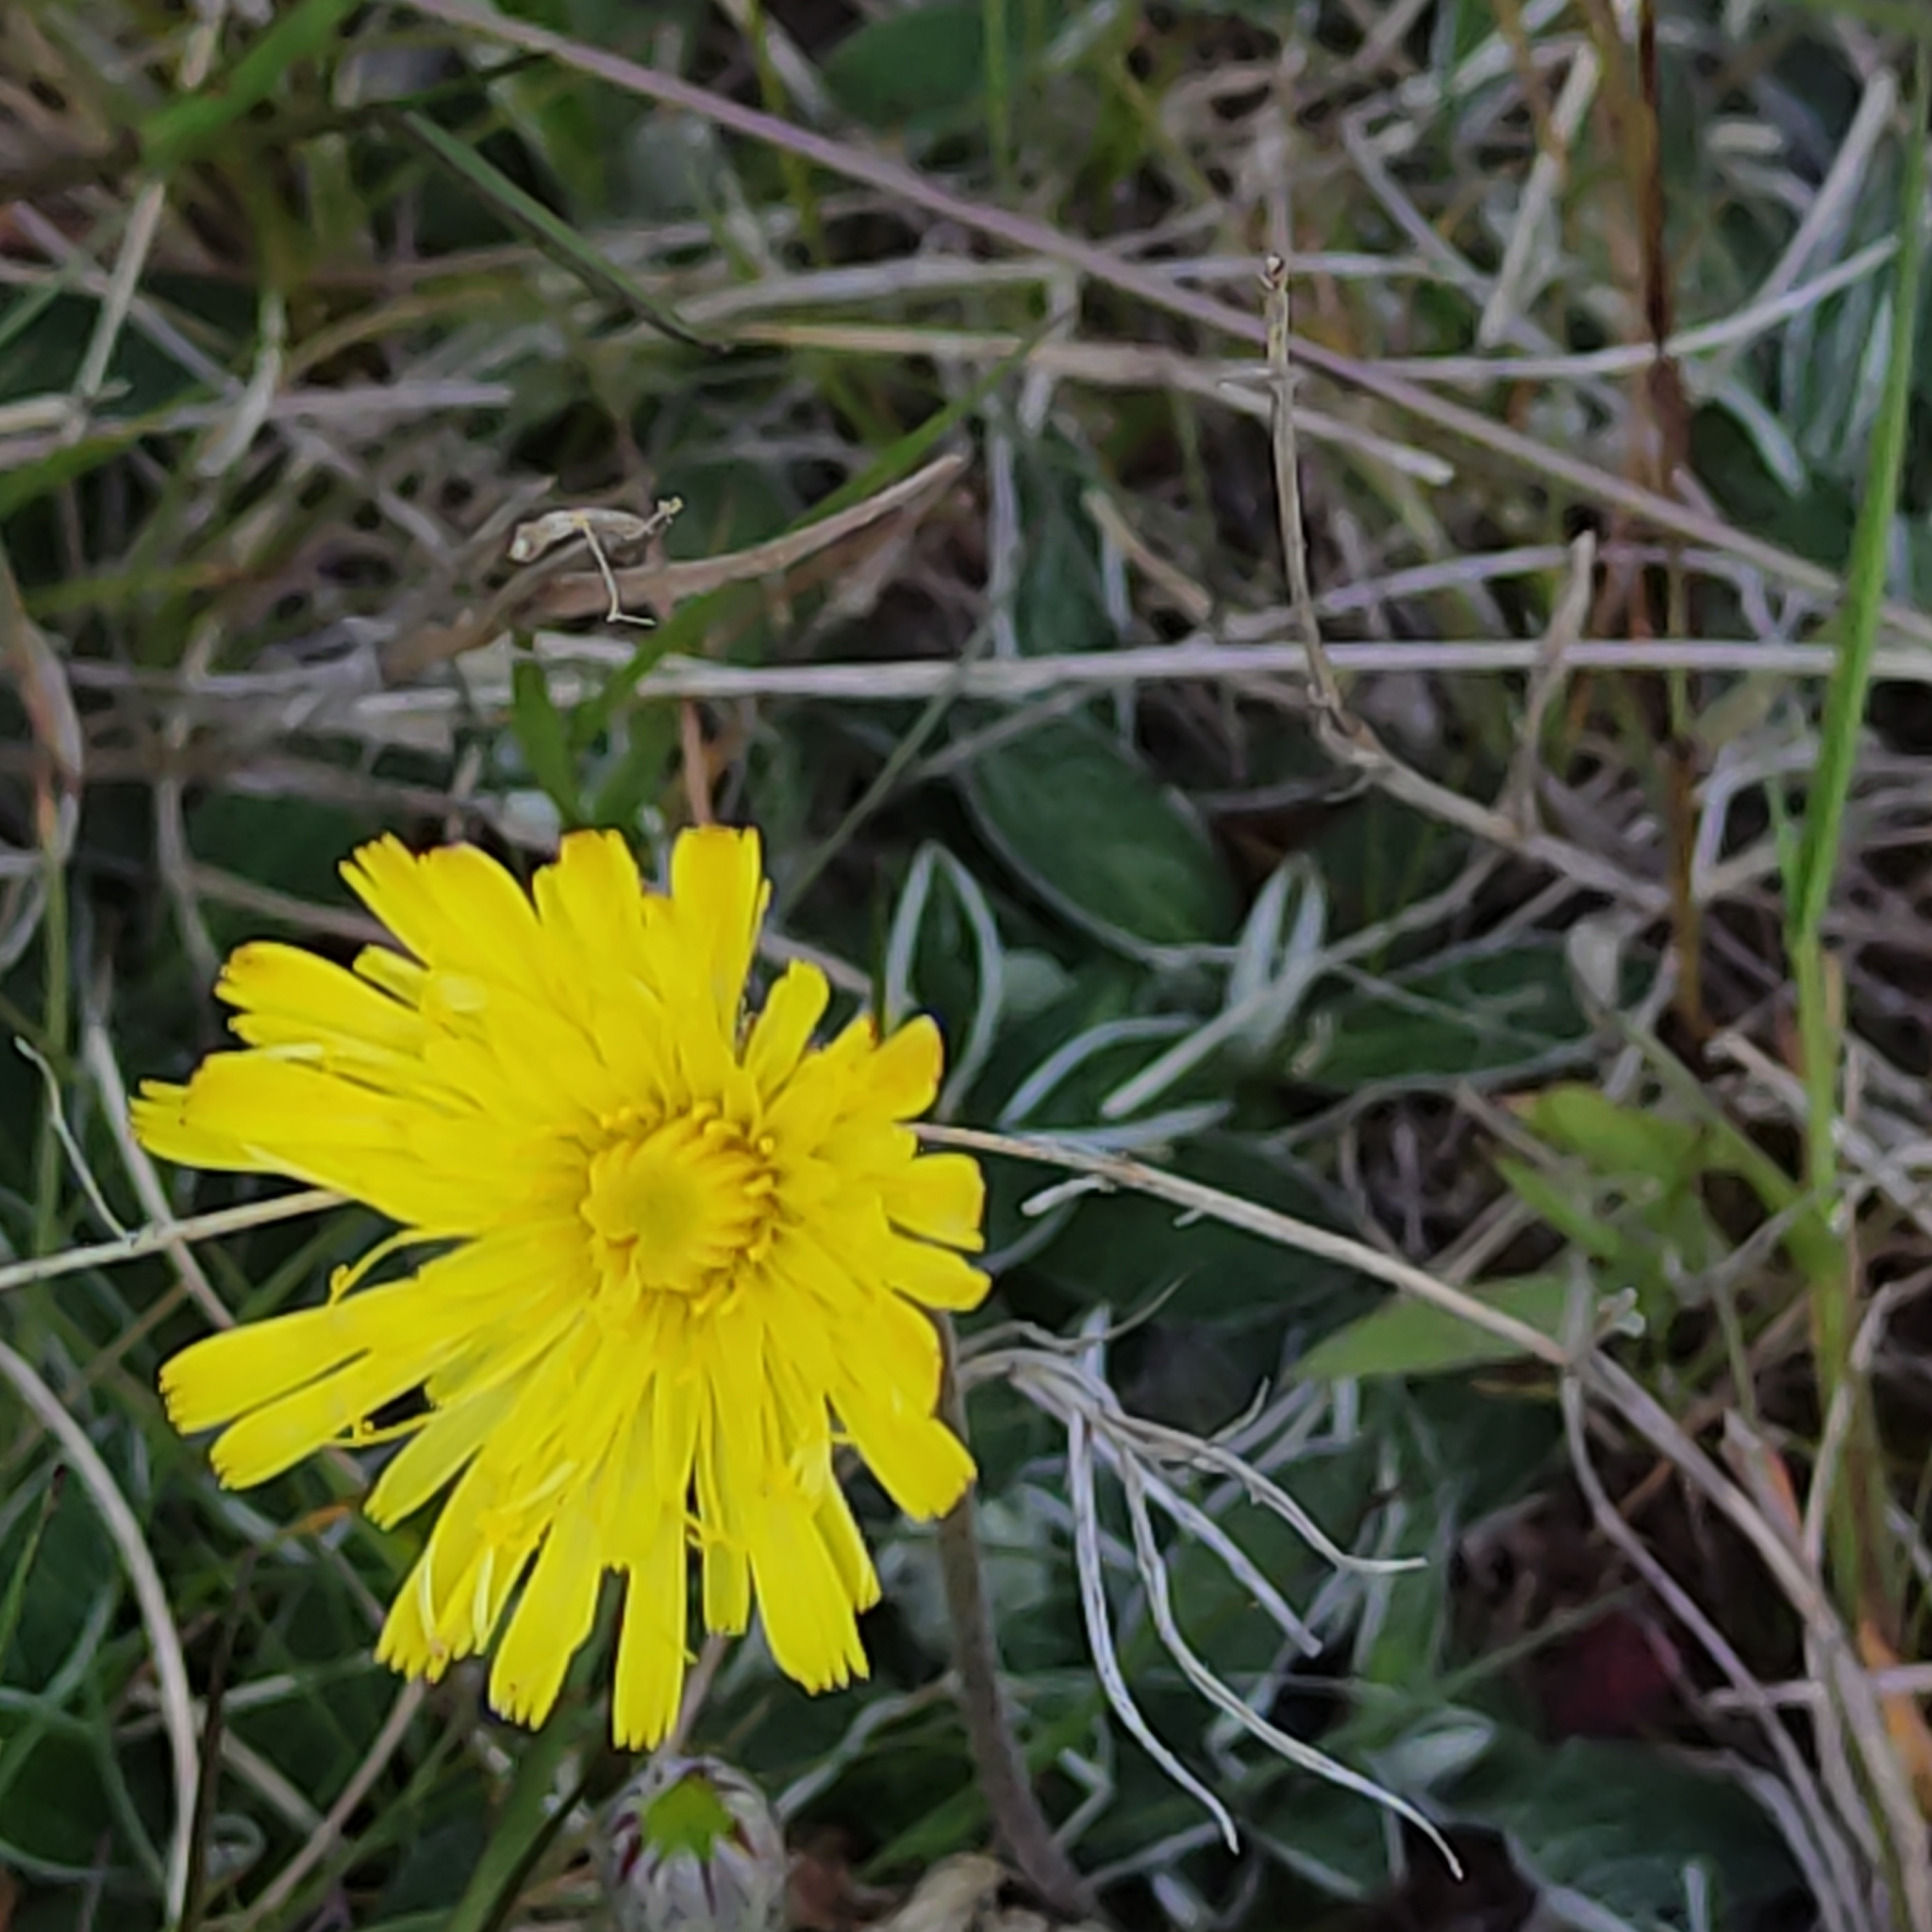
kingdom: Plantae
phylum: Tracheophyta
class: Magnoliopsida
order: Asterales
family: Asteraceae
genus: Pilosella
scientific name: Pilosella officinarum
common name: Mouse-ear hawkweed
